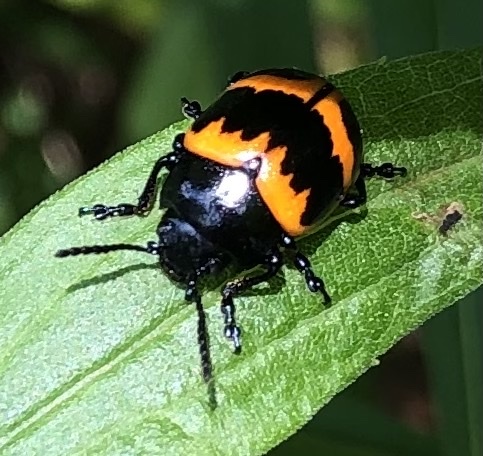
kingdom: Animalia
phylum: Arthropoda
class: Insecta
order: Coleoptera
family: Chrysomelidae
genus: Labidomera
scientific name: Labidomera clivicollis
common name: Swamp milkweed leaf beetle
